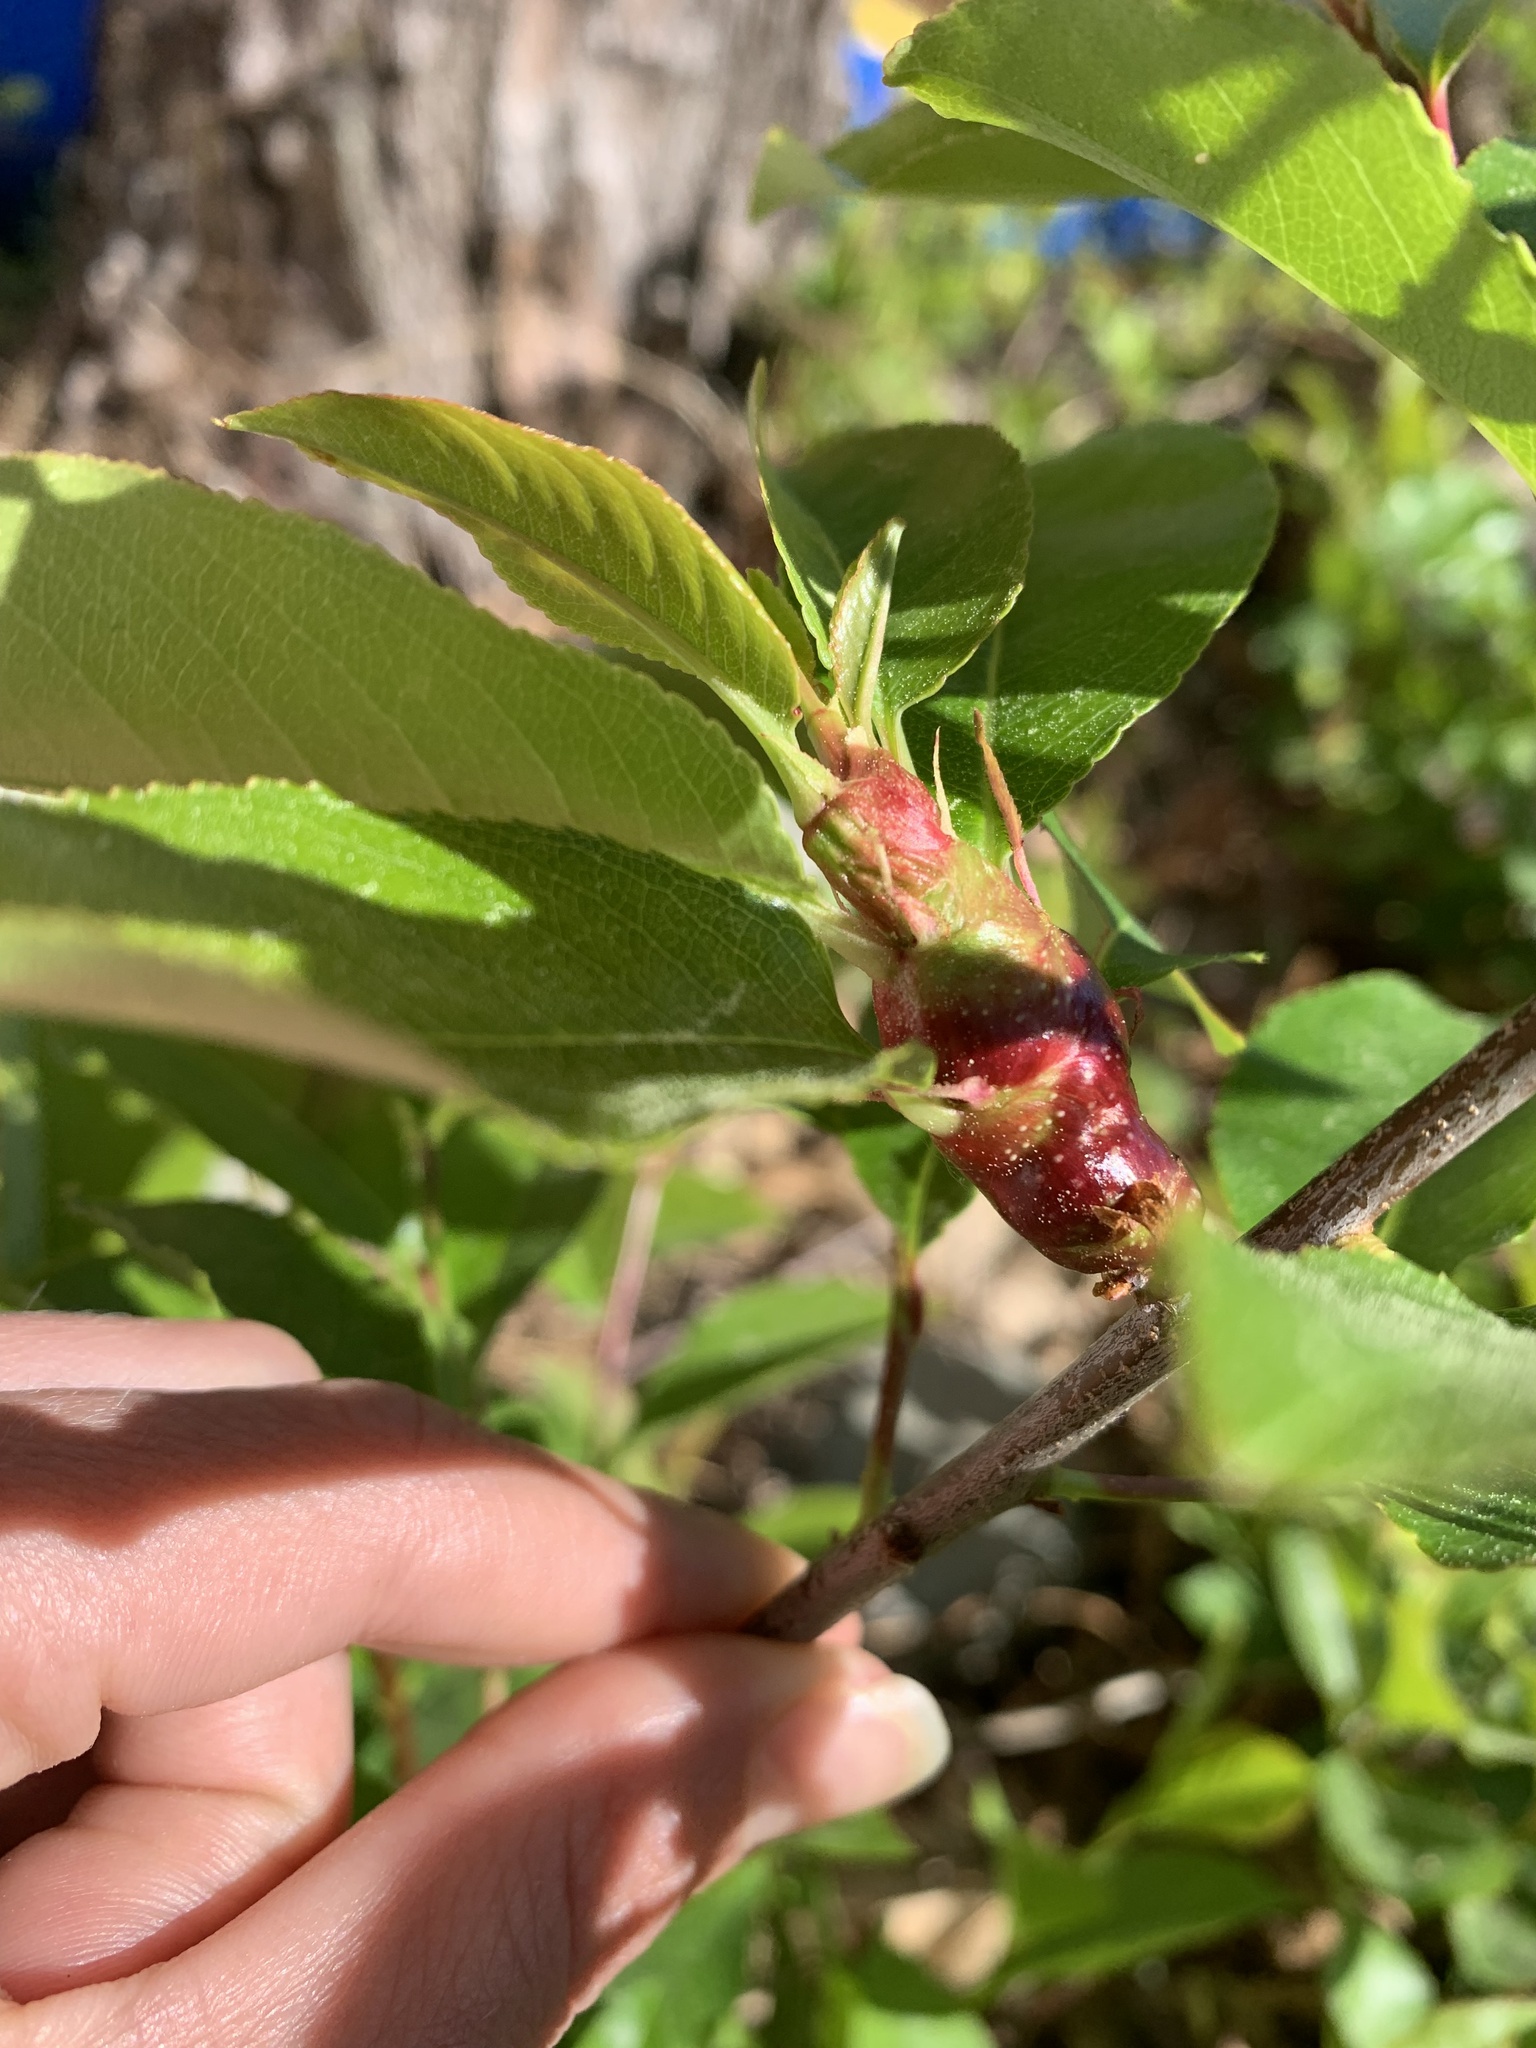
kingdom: Animalia
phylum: Arthropoda
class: Insecta
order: Diptera
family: Cecidomyiidae
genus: Contarinia
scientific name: Contarinia cerasiserotinae
